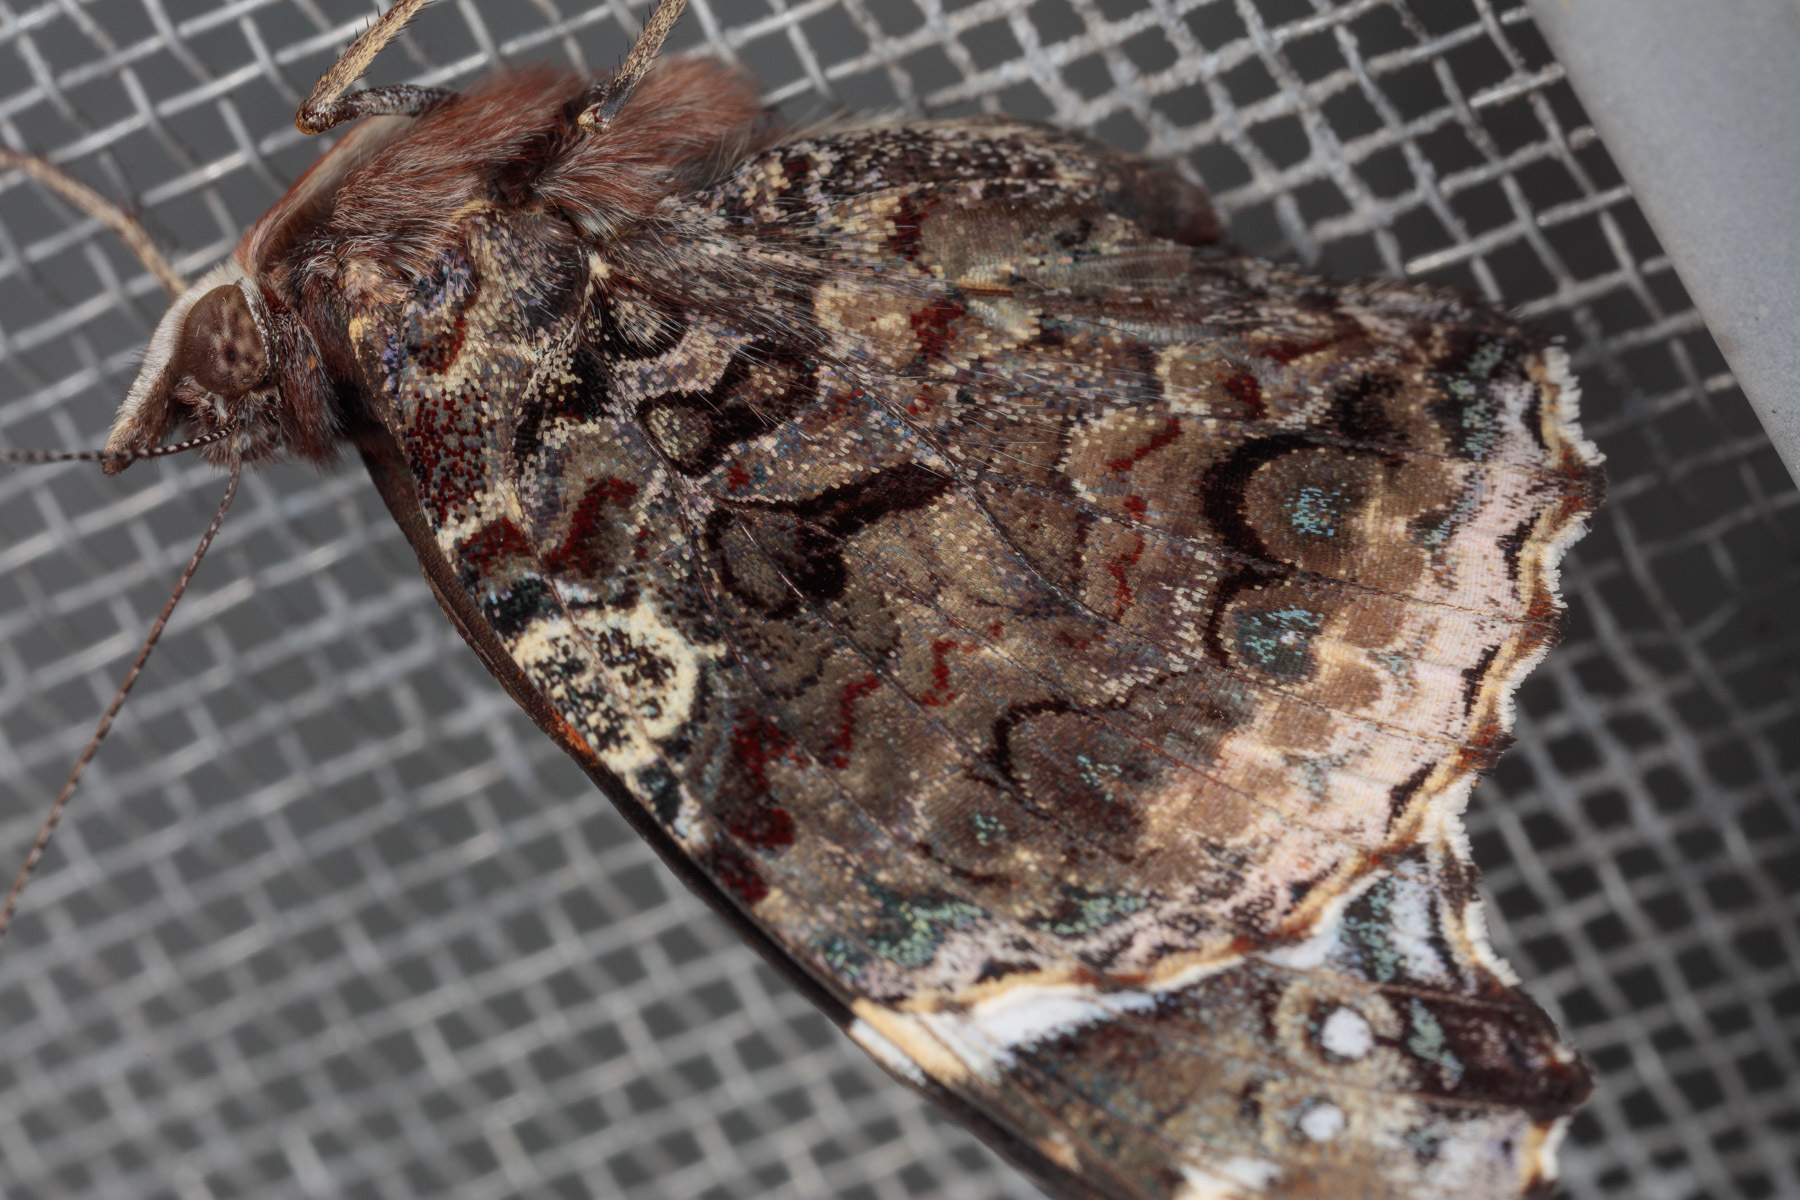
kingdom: Animalia
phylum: Arthropoda
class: Insecta
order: Lepidoptera
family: Nymphalidae
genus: Vanessa
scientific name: Vanessa atalanta
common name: Red admiral
